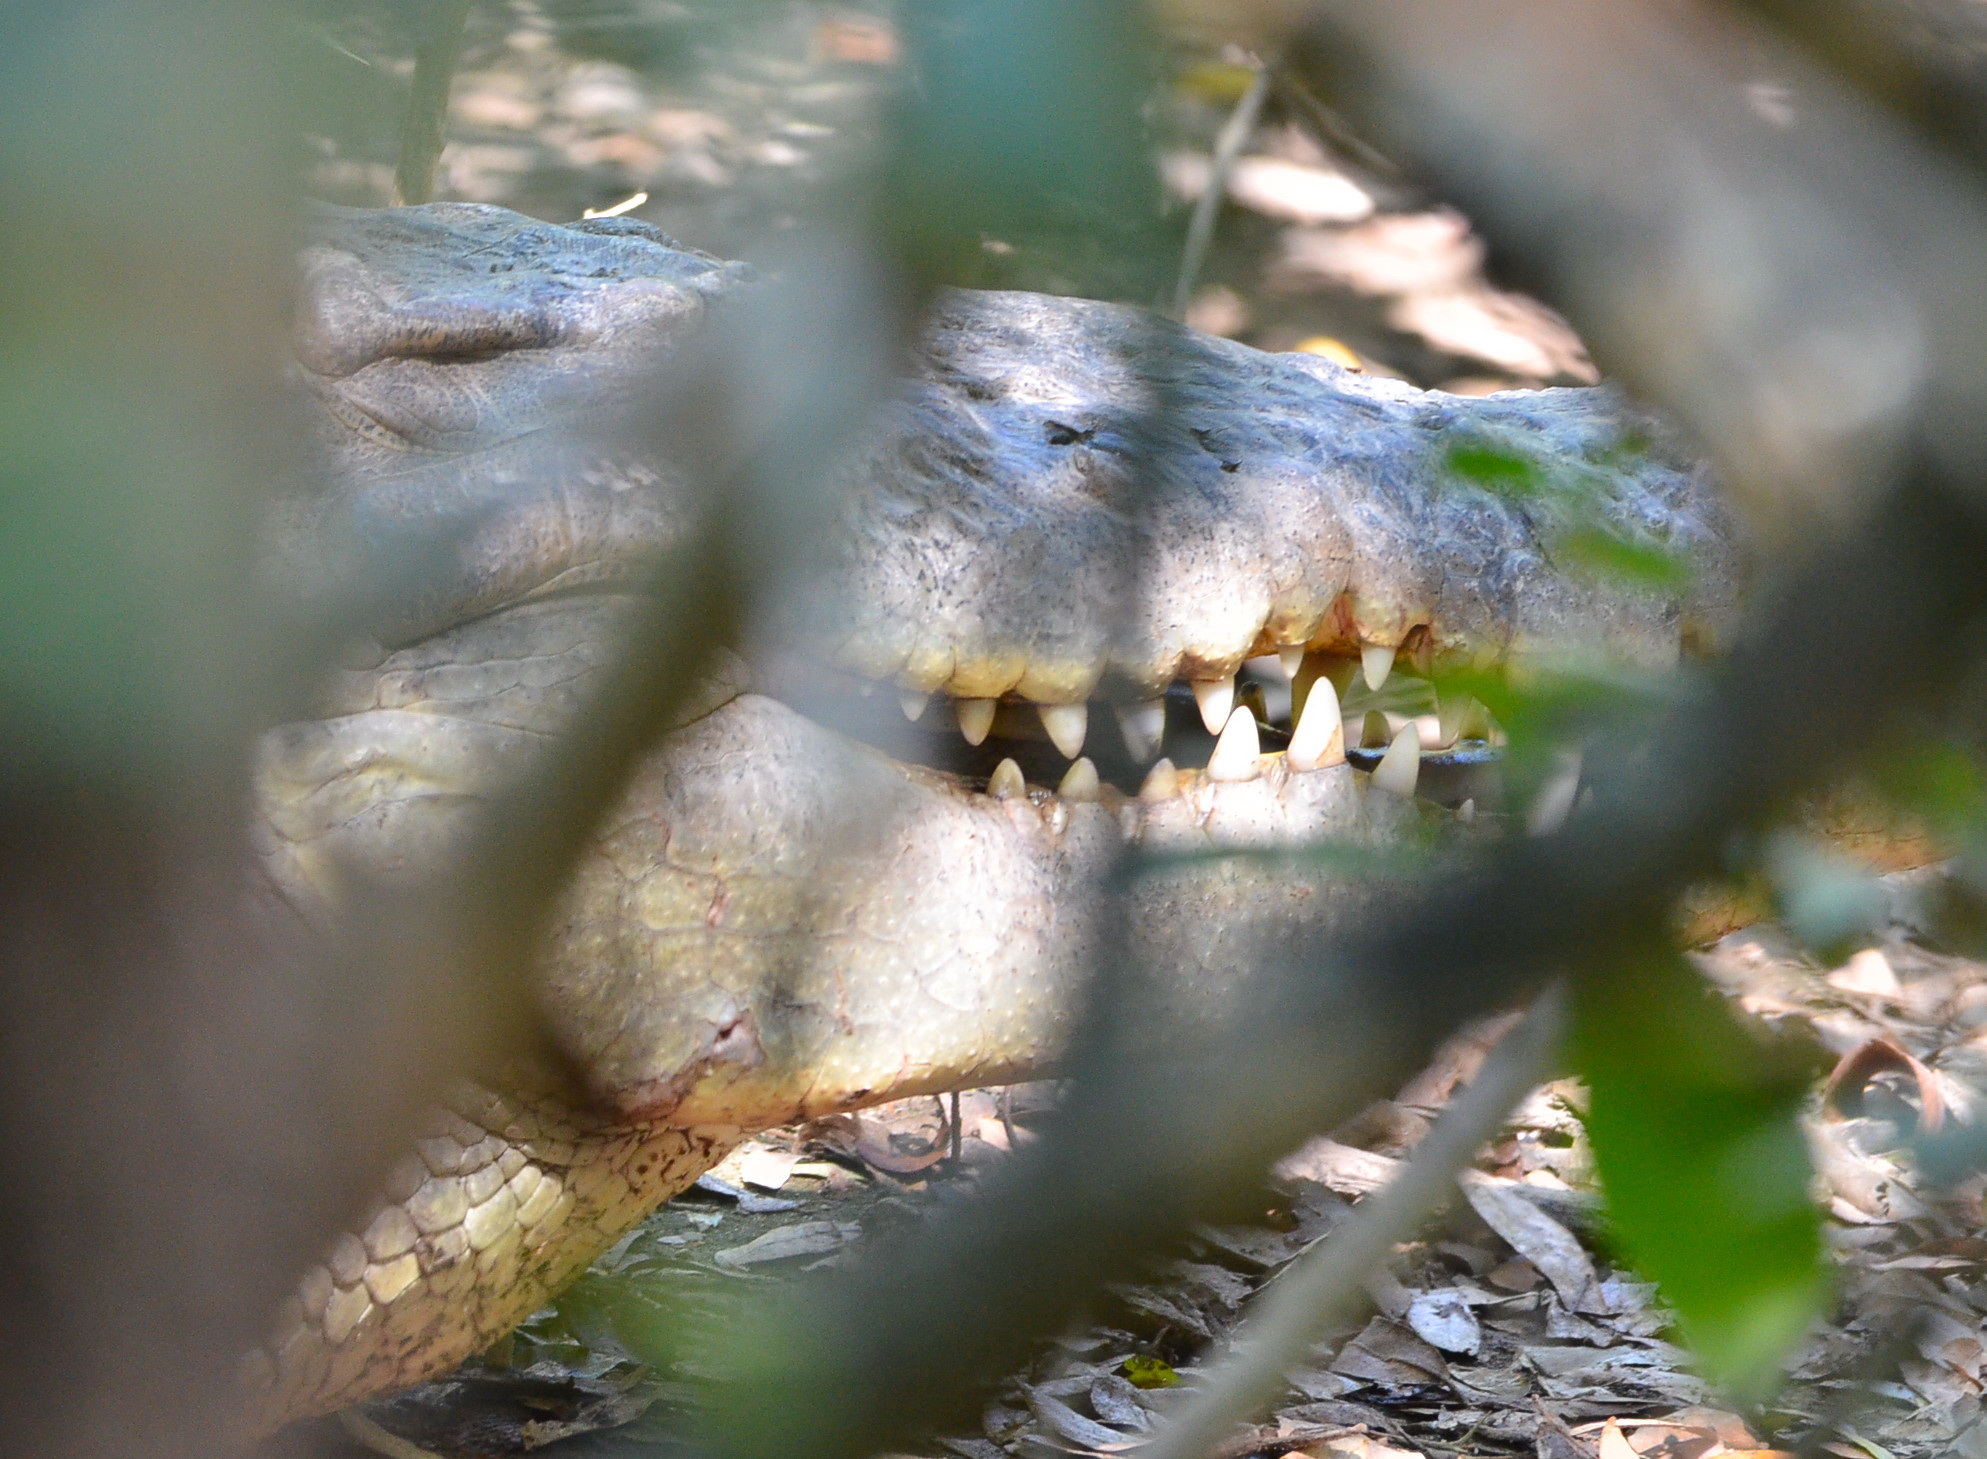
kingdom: Animalia
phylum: Chordata
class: Crocodylia
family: Crocodylidae
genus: Crocodylus
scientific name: Crocodylus acutus
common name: American crocodile
